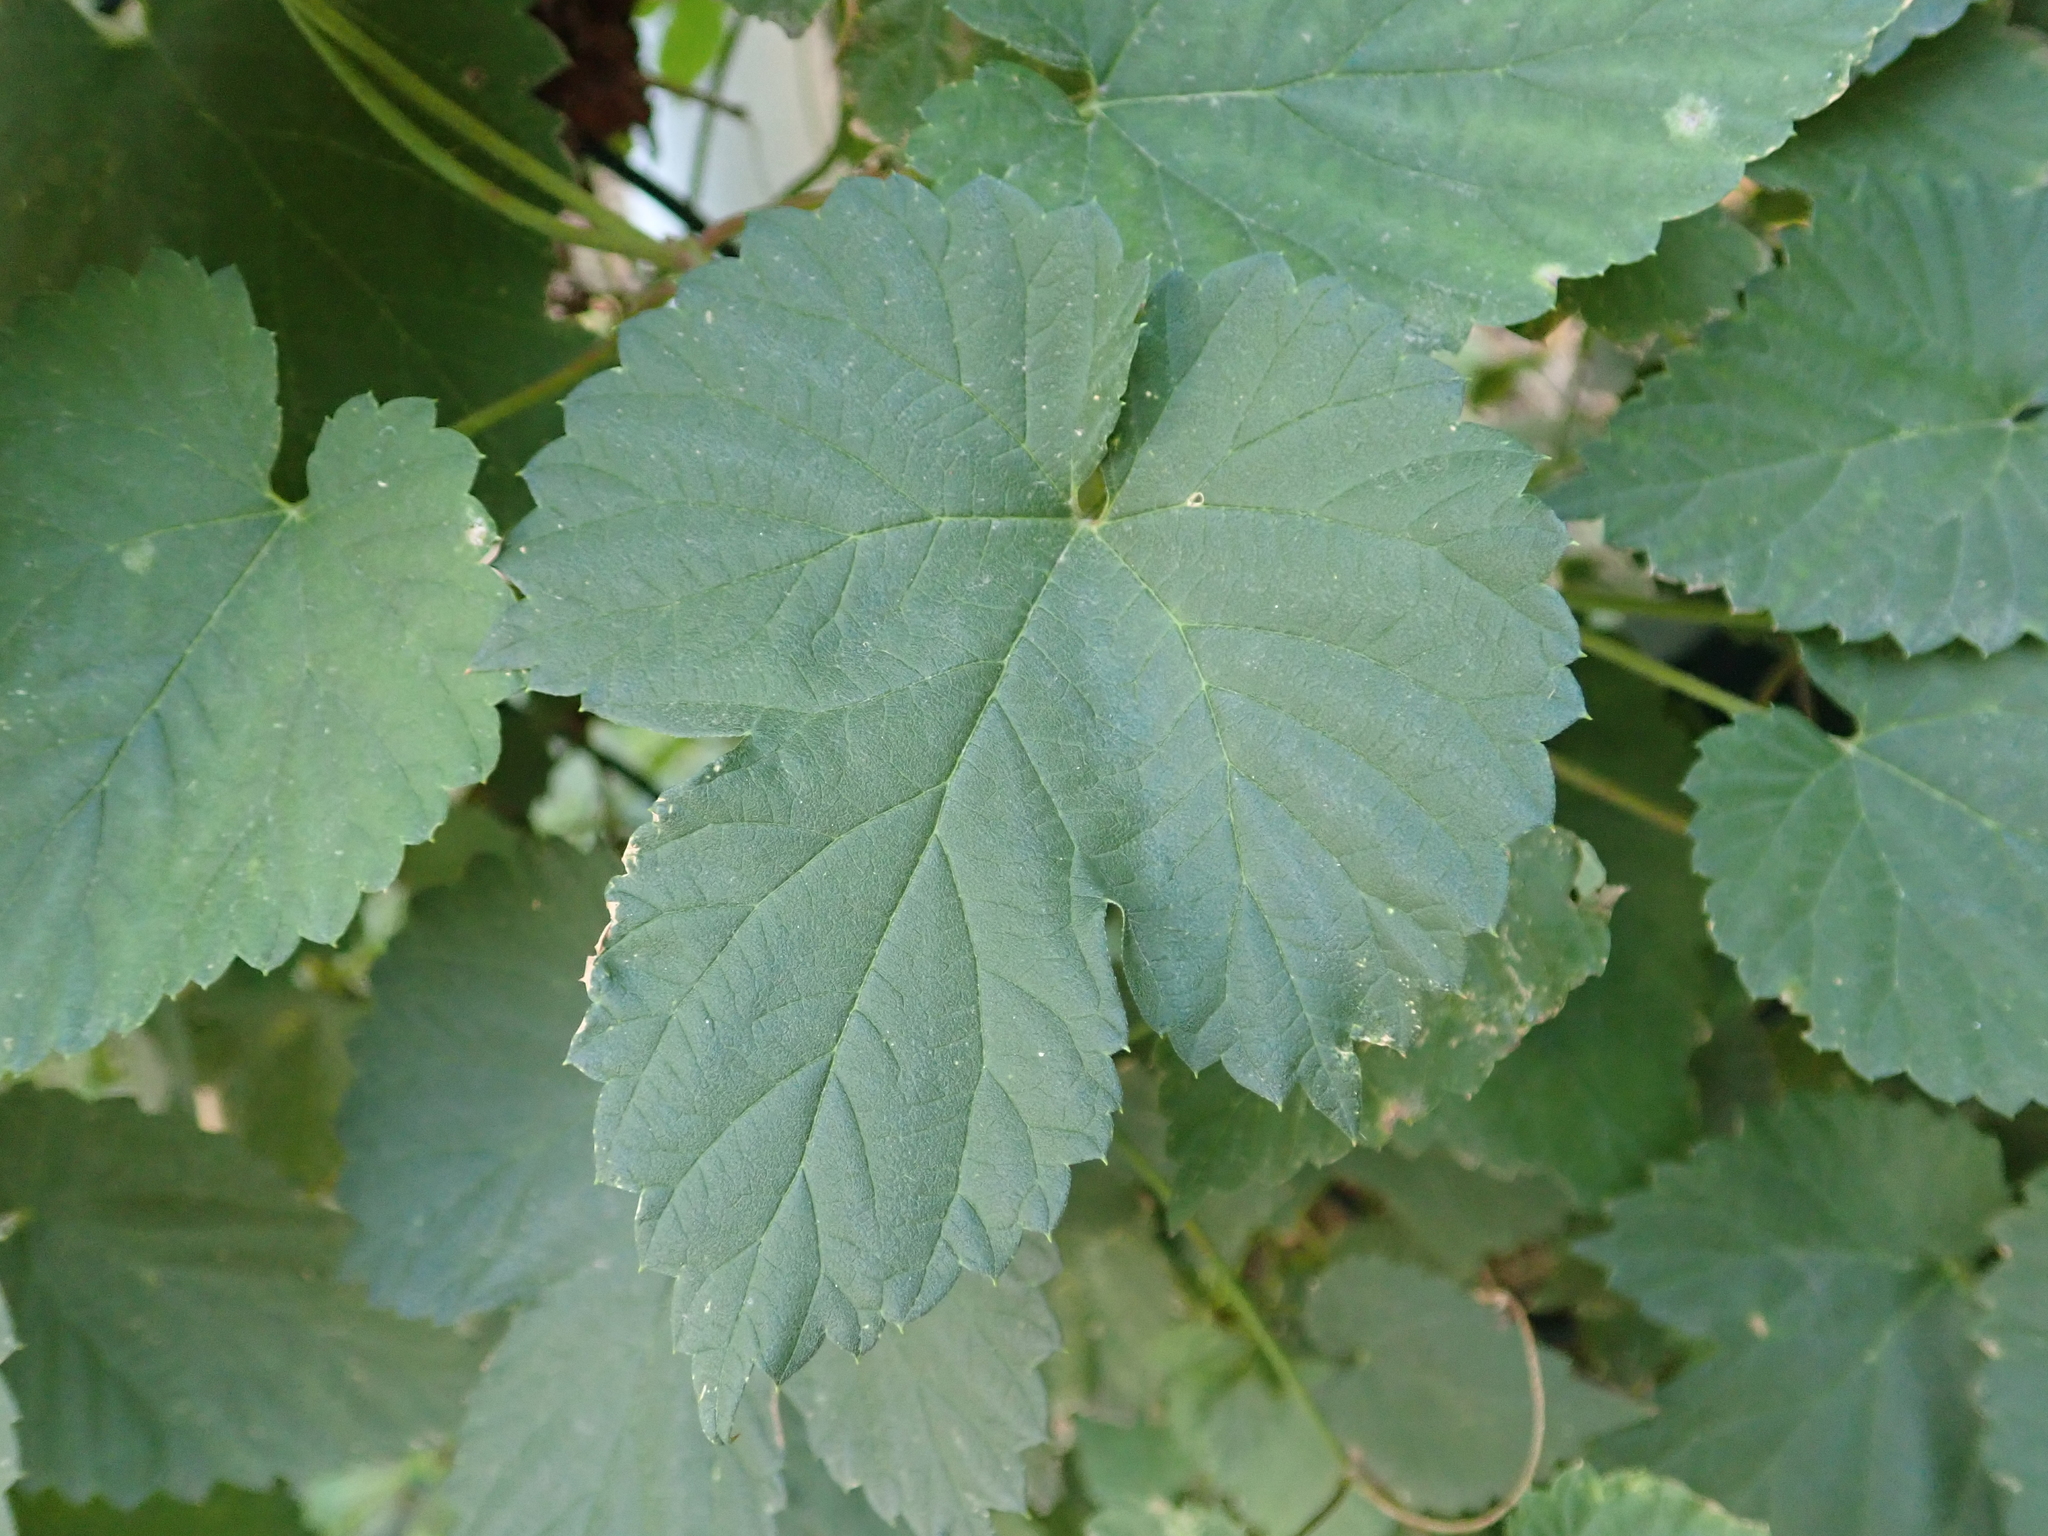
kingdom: Plantae
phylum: Tracheophyta
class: Magnoliopsida
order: Rosales
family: Cannabaceae
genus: Humulus
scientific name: Humulus lupulus
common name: Hop
